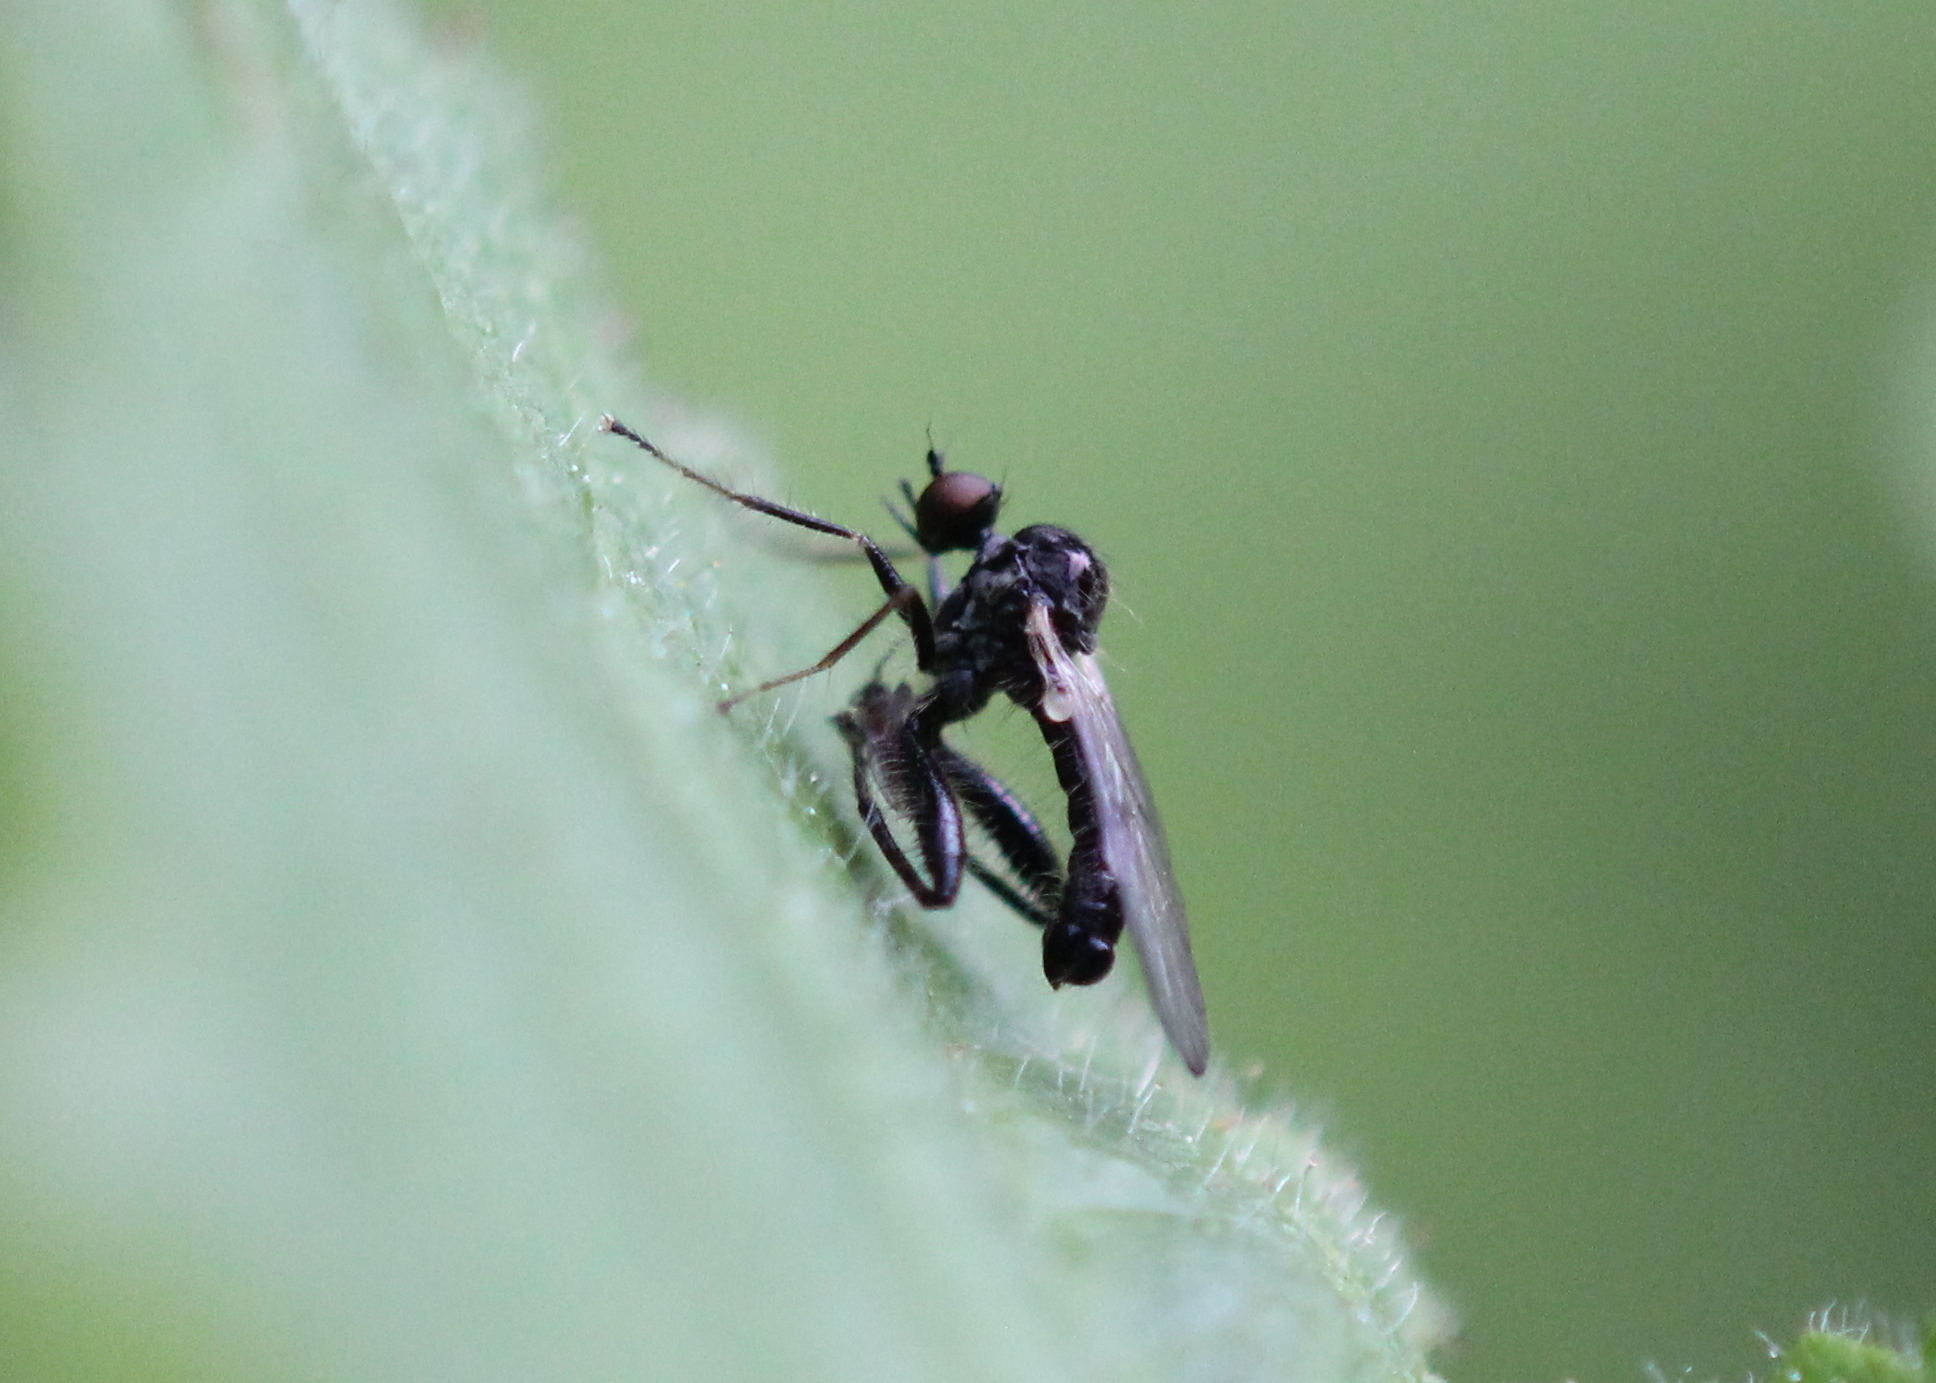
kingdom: Animalia
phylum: Arthropoda
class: Insecta
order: Diptera
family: Hybotidae
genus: Hybos
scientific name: Hybos reversus
